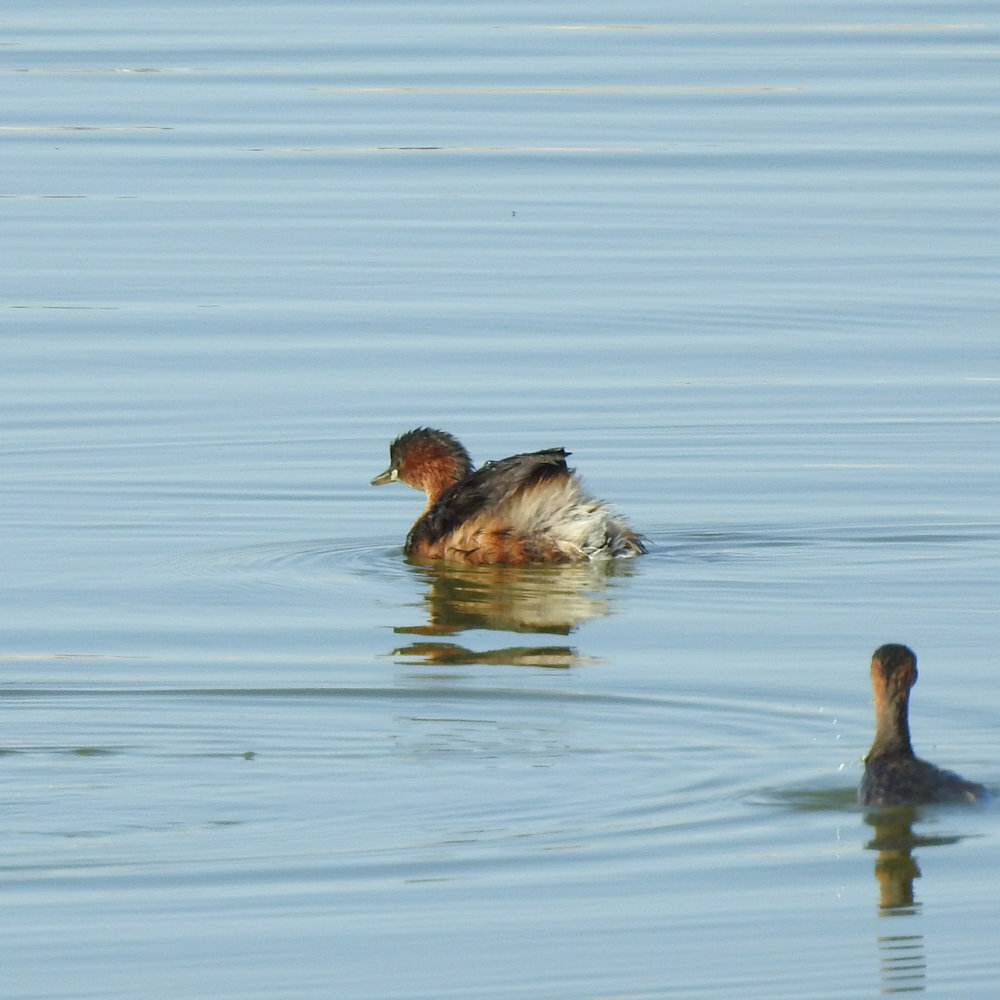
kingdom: Animalia
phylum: Chordata
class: Aves
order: Podicipediformes
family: Podicipedidae
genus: Tachybaptus
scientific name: Tachybaptus ruficollis
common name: Little grebe
